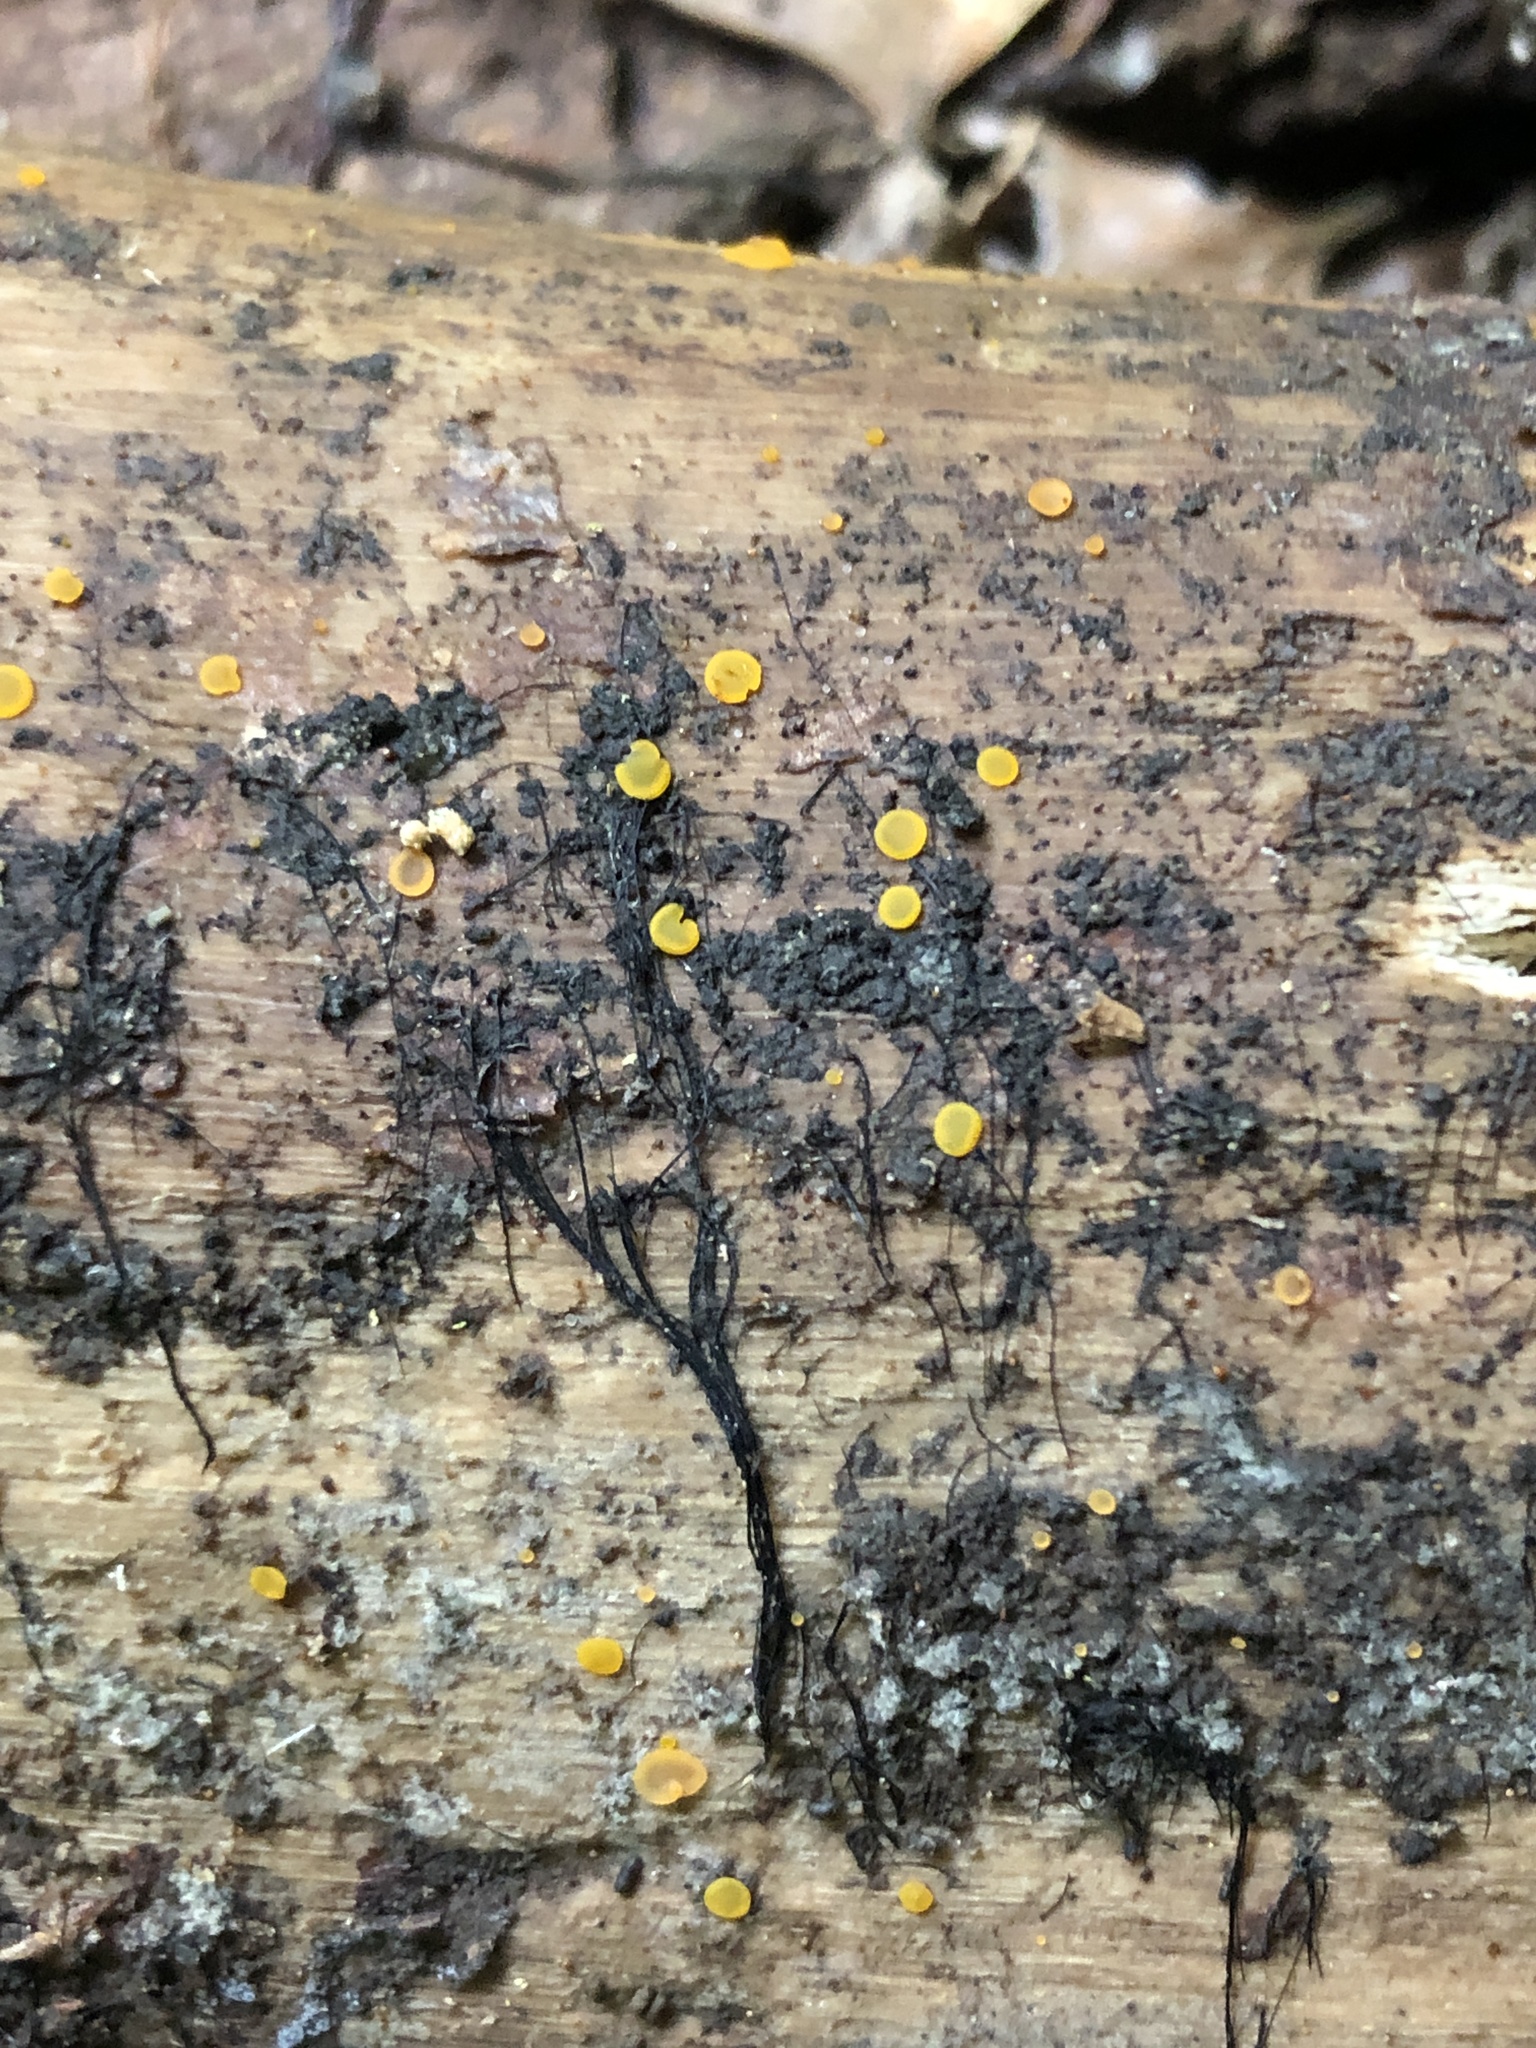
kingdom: Fungi
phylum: Ascomycota
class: Leotiomycetes
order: Helotiales
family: Pezizellaceae
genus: Calycina
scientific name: Calycina citrina
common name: Yellow fairy cups
